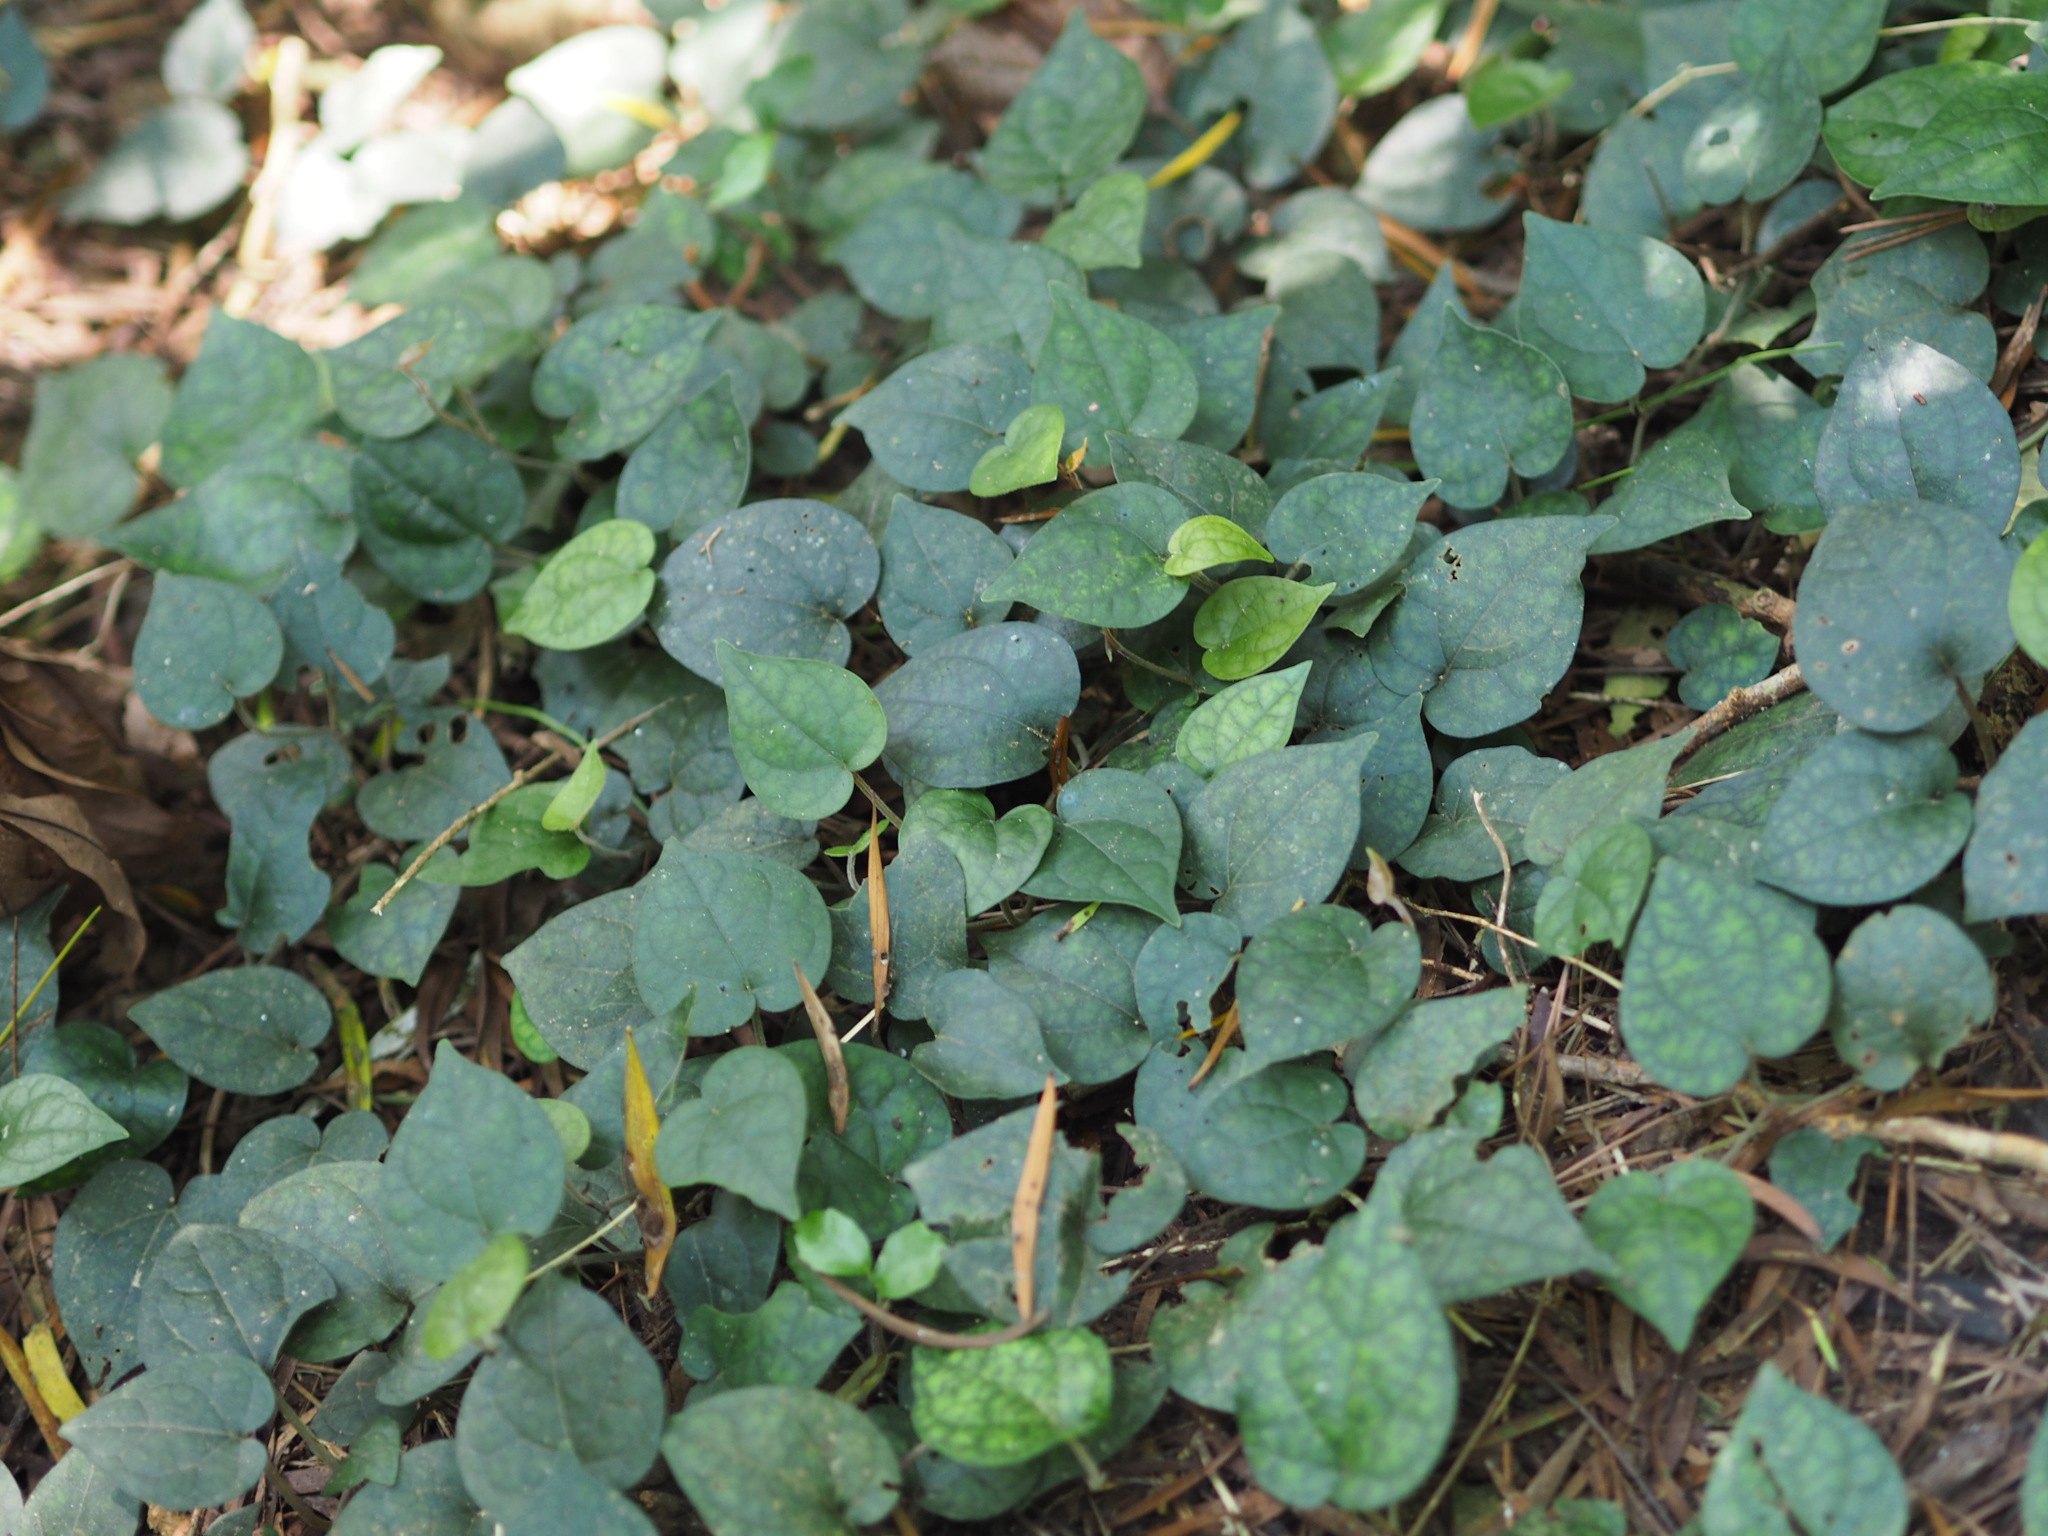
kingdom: Plantae
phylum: Tracheophyta
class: Magnoliopsida
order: Piperales
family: Piperaceae
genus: Piper
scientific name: Piper kadsura
